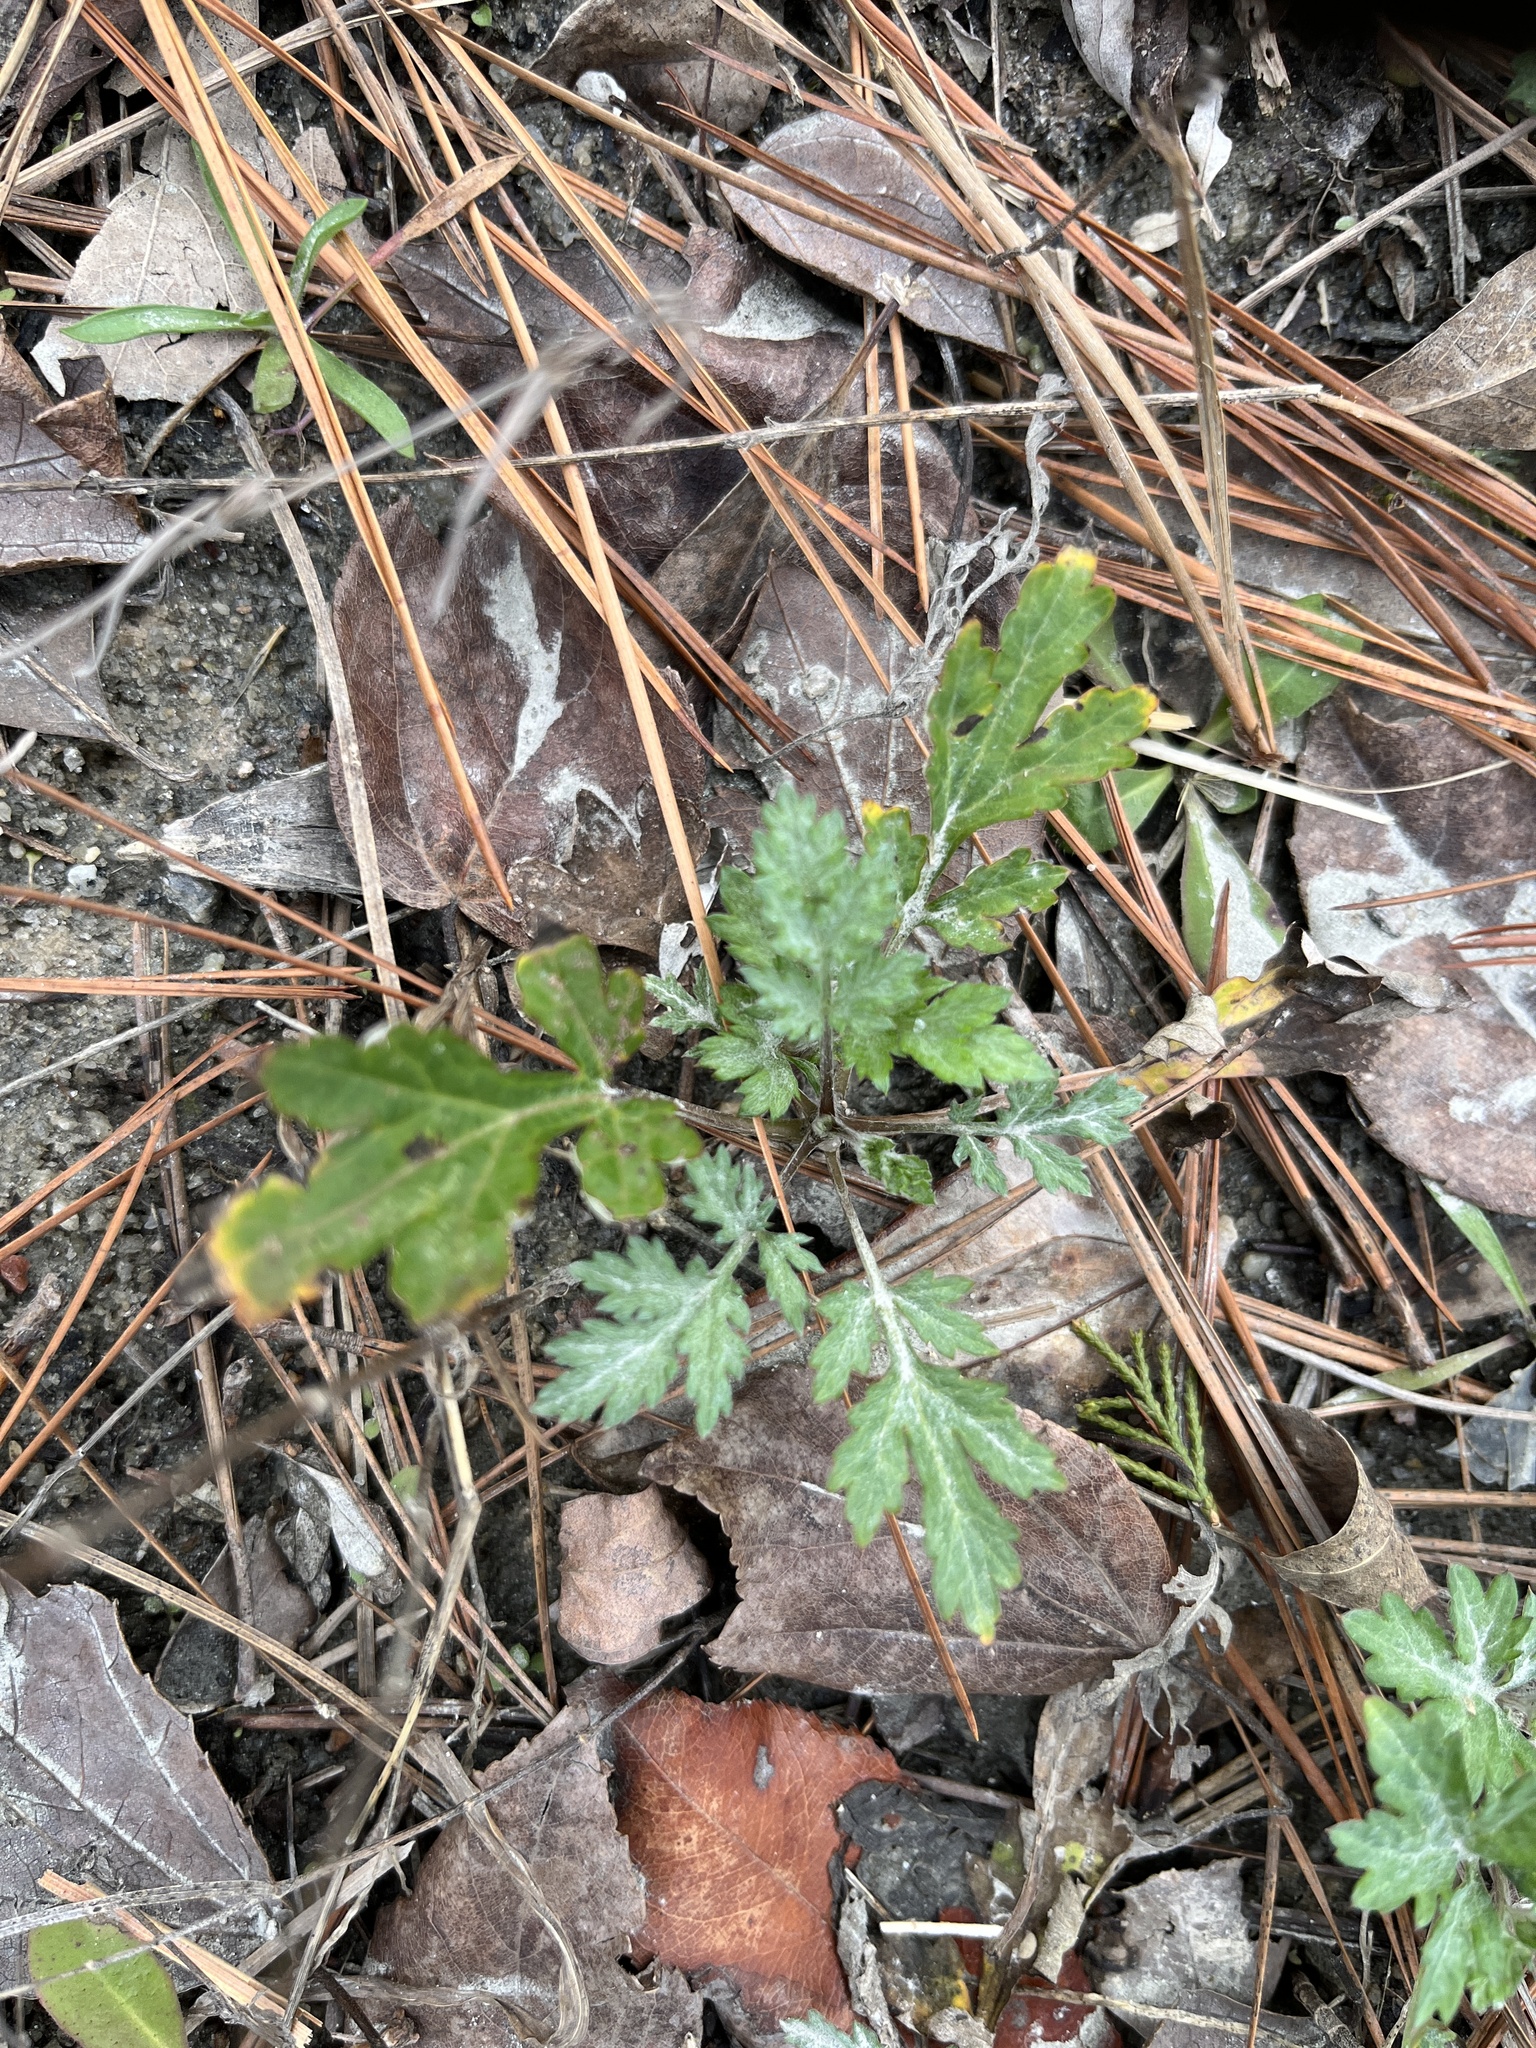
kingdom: Plantae
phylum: Tracheophyta
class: Magnoliopsida
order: Asterales
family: Asteraceae
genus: Artemisia
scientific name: Artemisia vulgaris
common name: Mugwort
